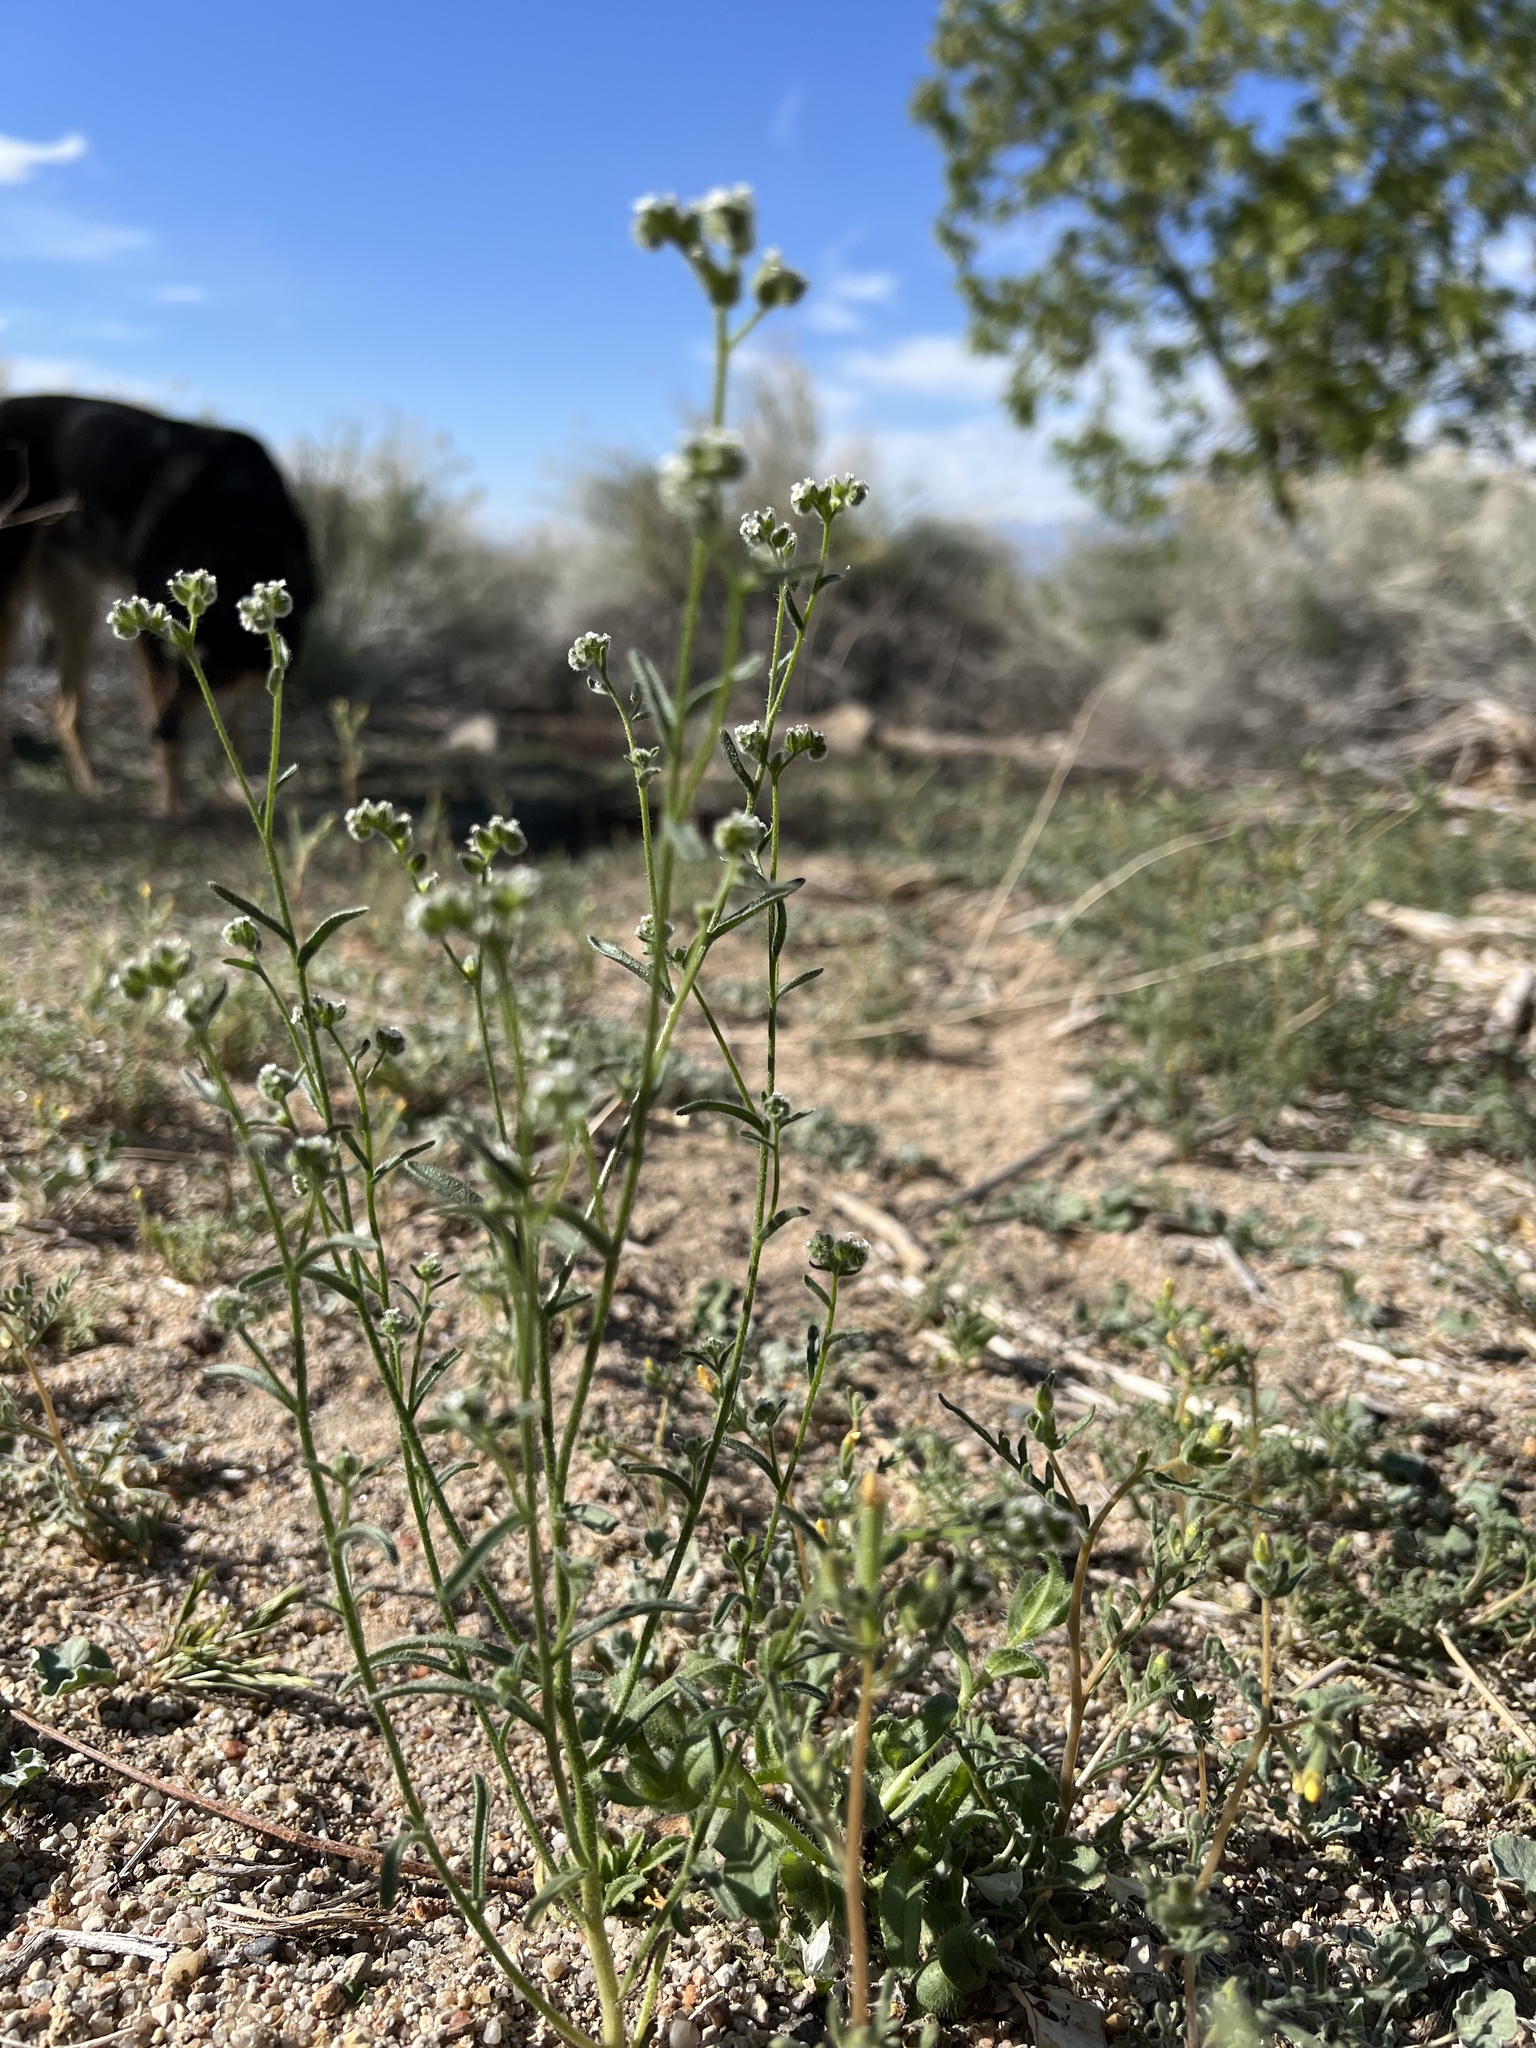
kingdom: Plantae
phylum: Tracheophyta
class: Magnoliopsida
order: Boraginales
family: Boraginaceae
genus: Cryptantha
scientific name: Cryptantha pterocarya
